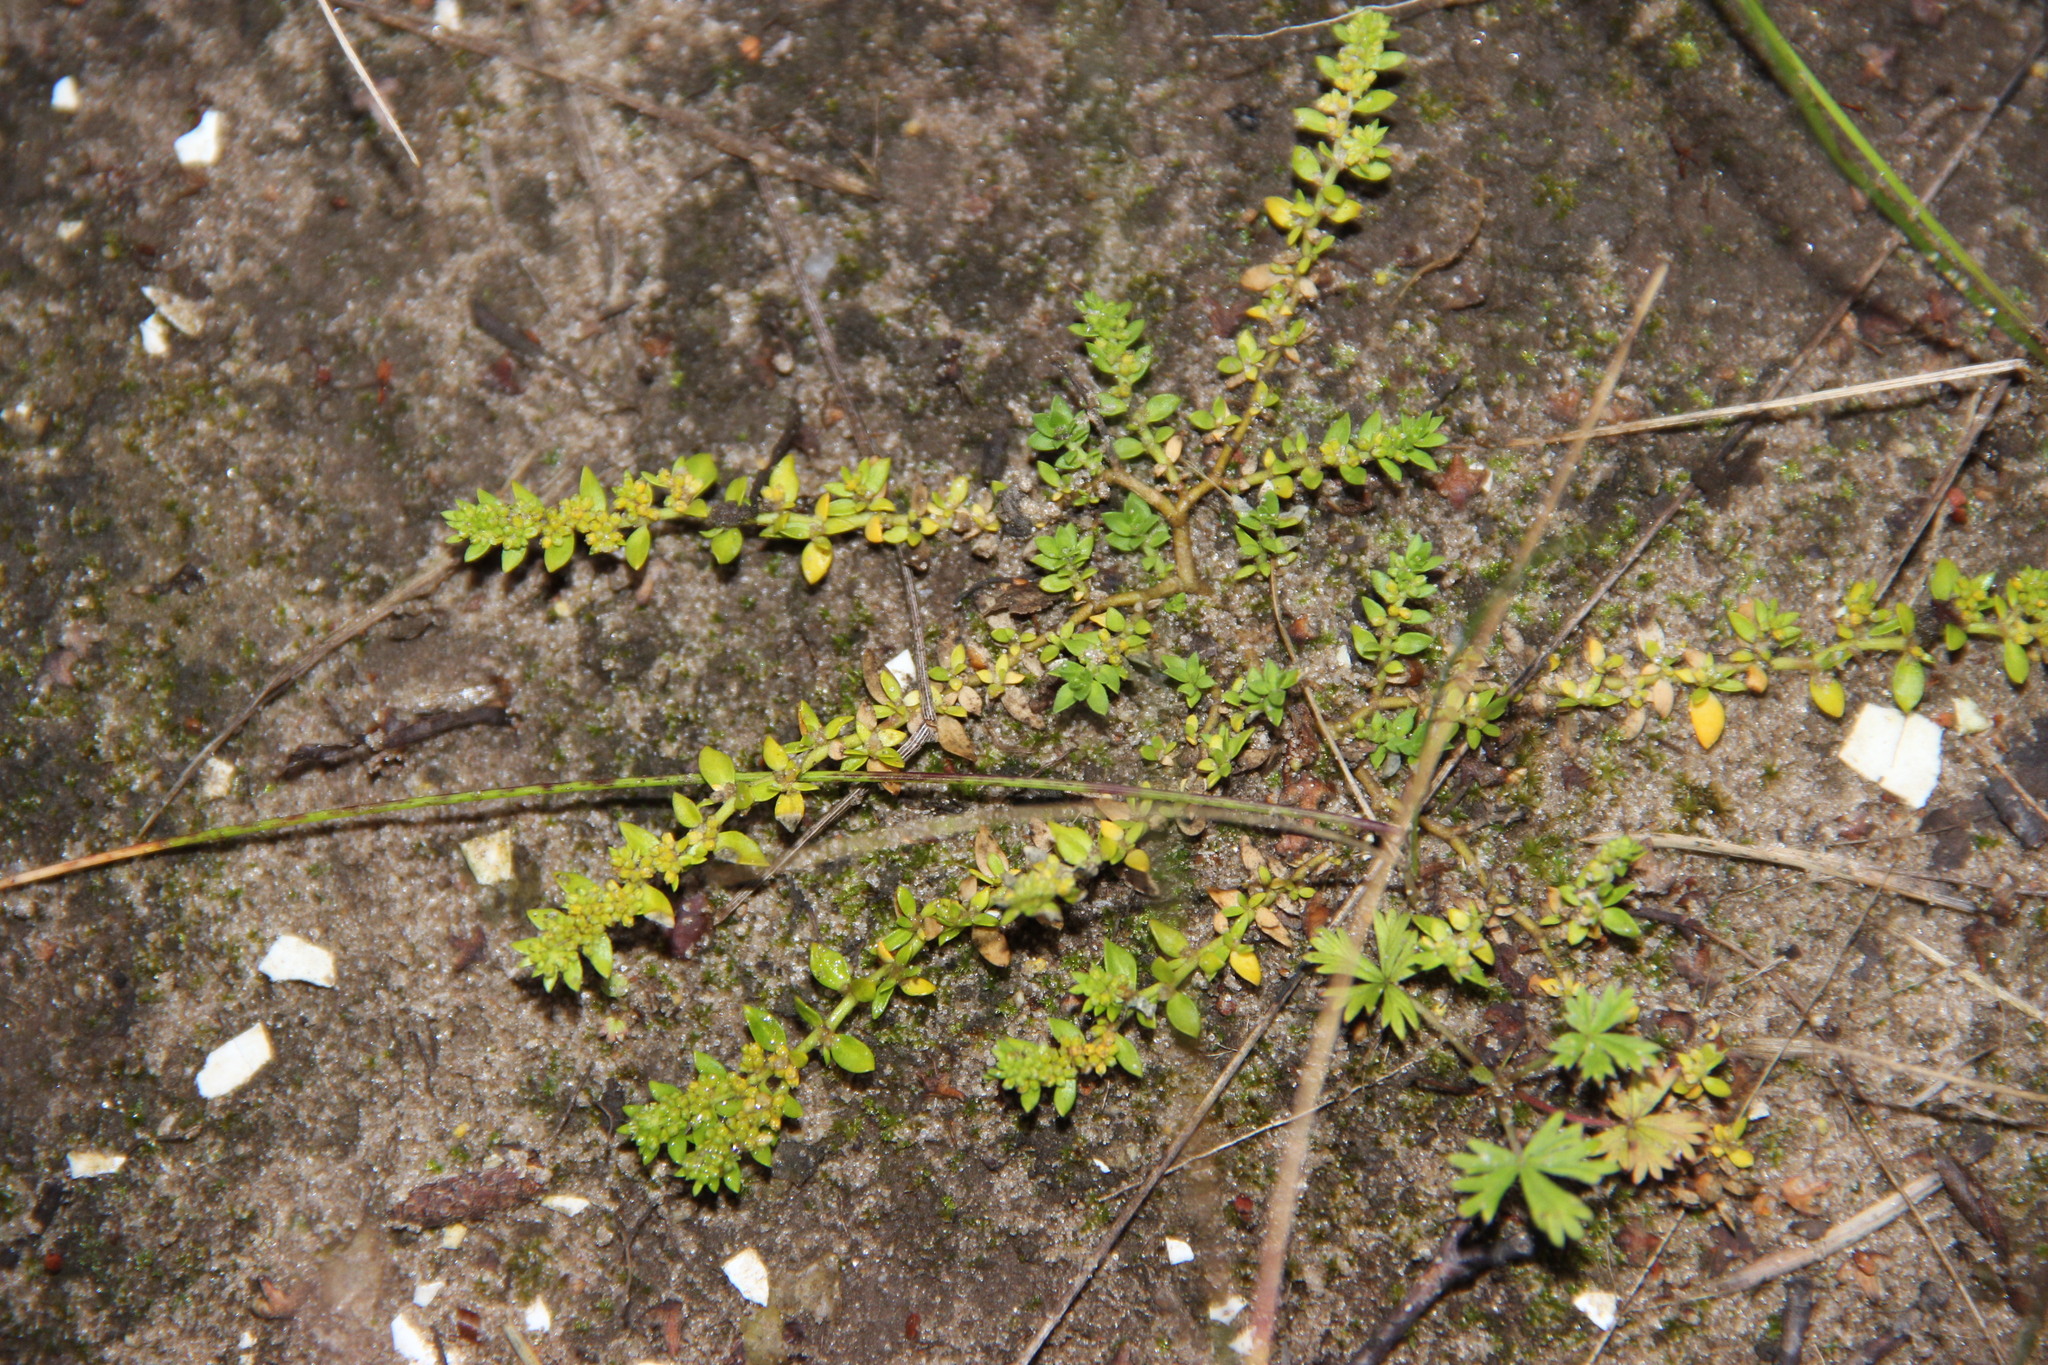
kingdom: Plantae
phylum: Tracheophyta
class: Magnoliopsida
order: Caryophyllales
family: Caryophyllaceae
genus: Herniaria
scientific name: Herniaria glabra
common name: Smooth rupturewort
